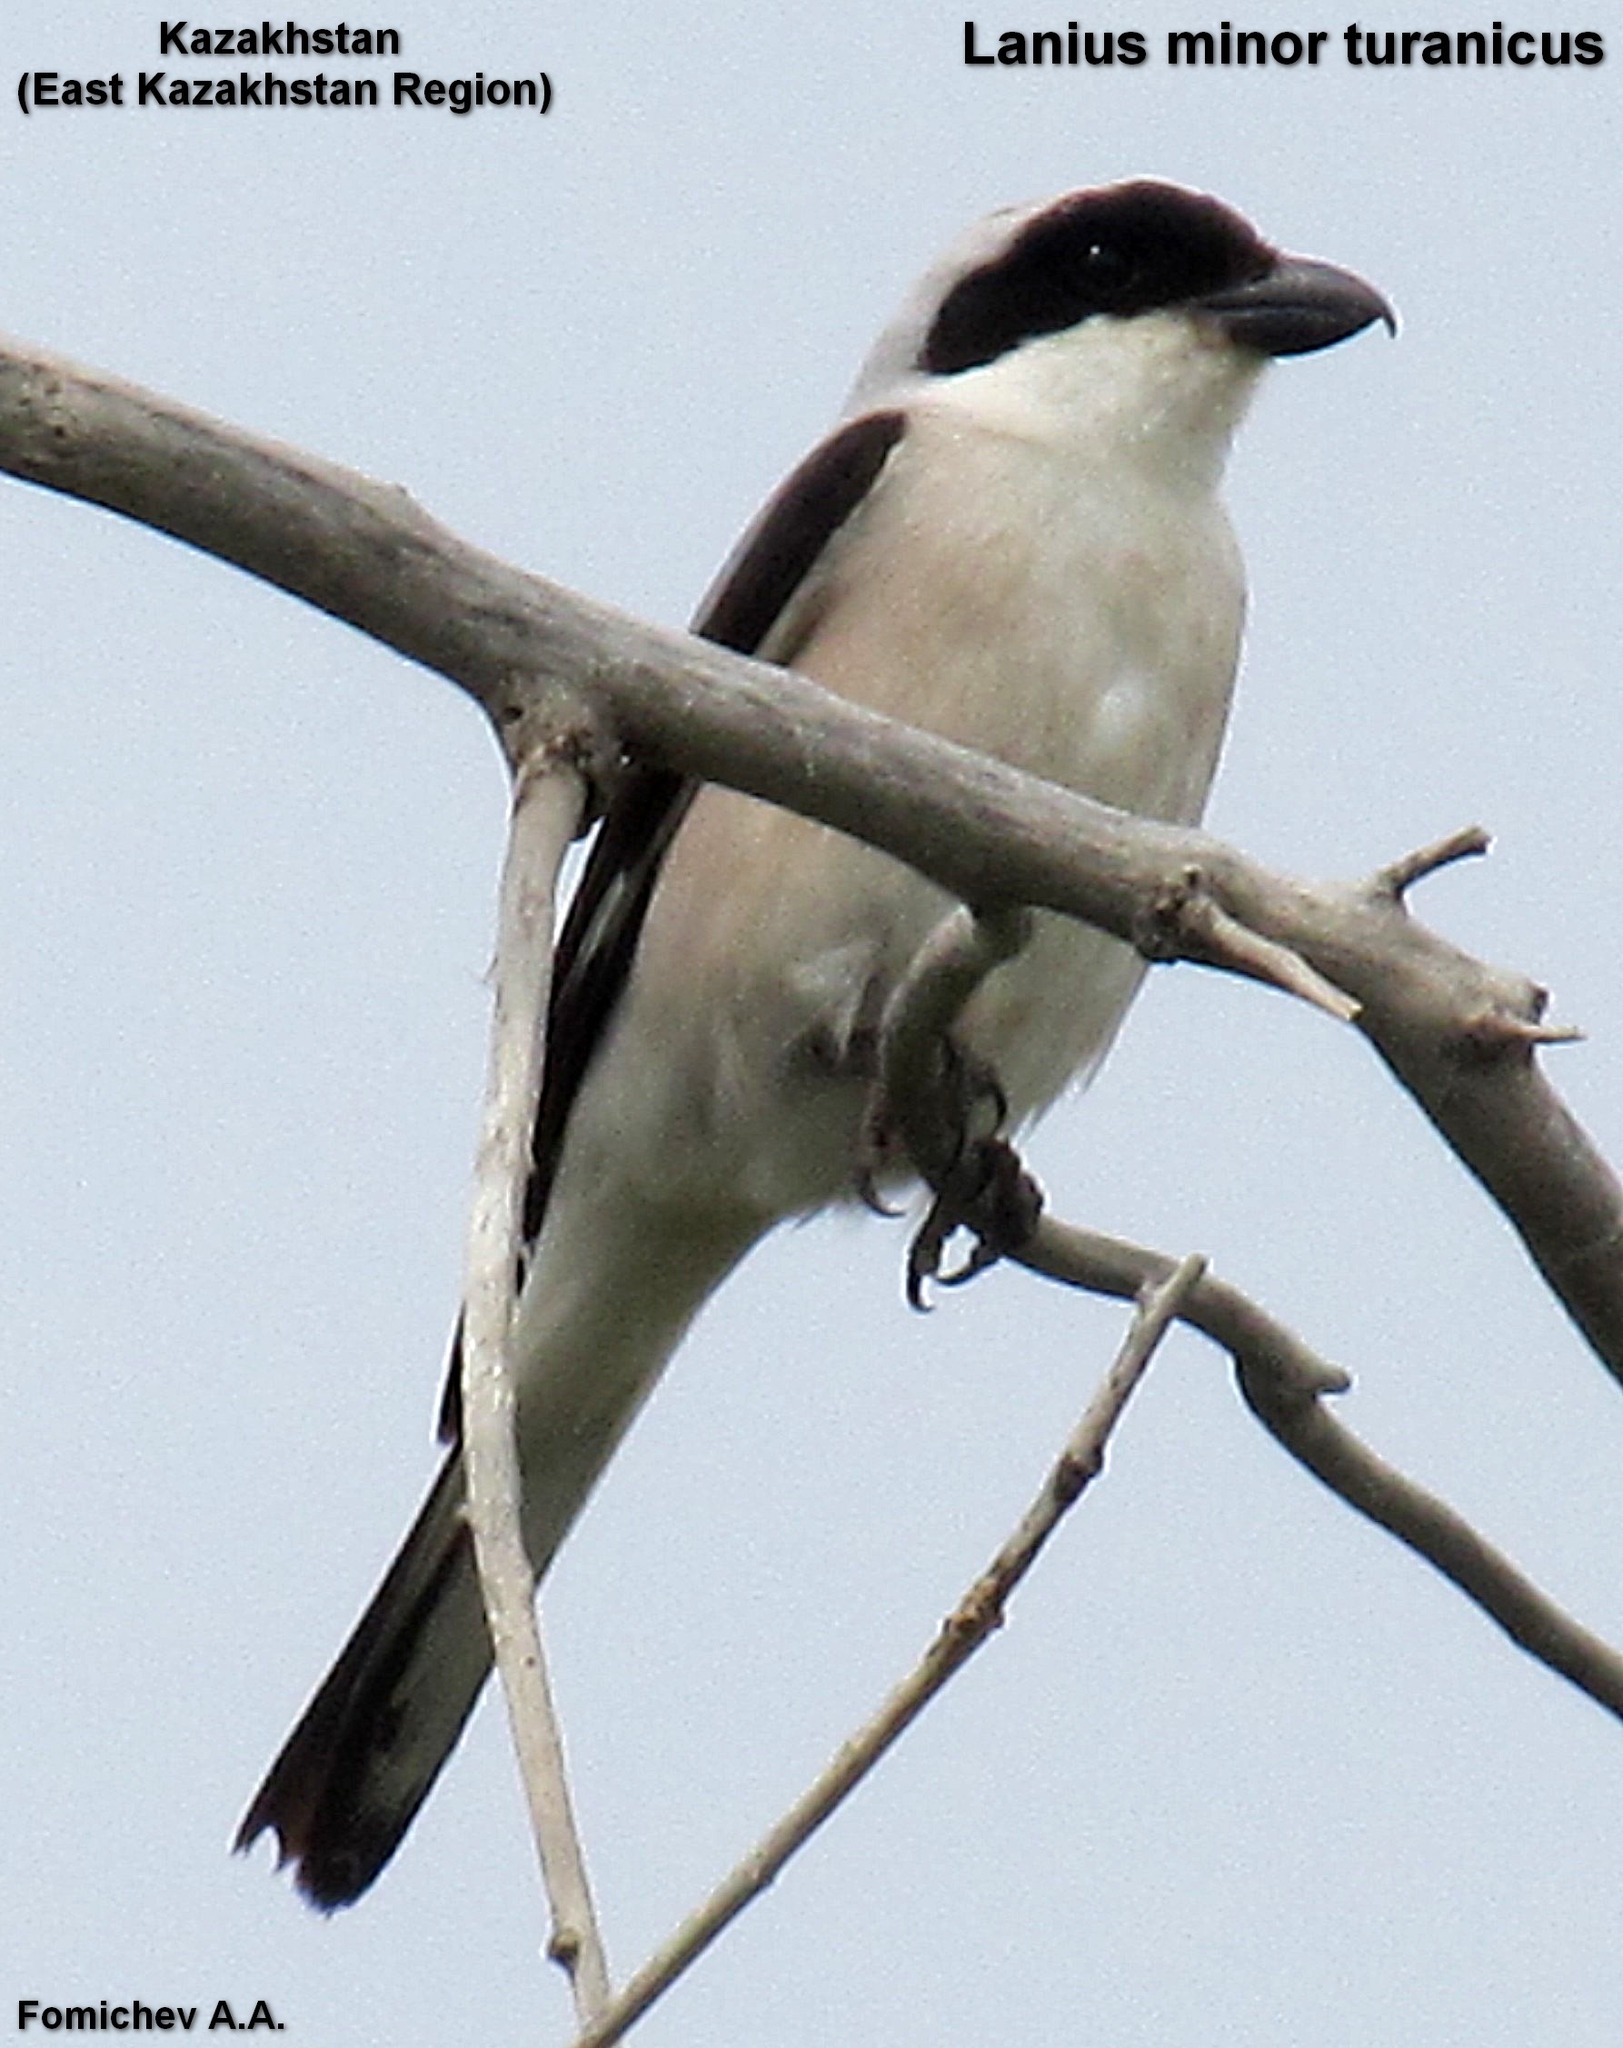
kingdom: Animalia
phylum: Chordata
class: Aves
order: Passeriformes
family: Laniidae
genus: Lanius
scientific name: Lanius minor
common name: Lesser grey shrike
